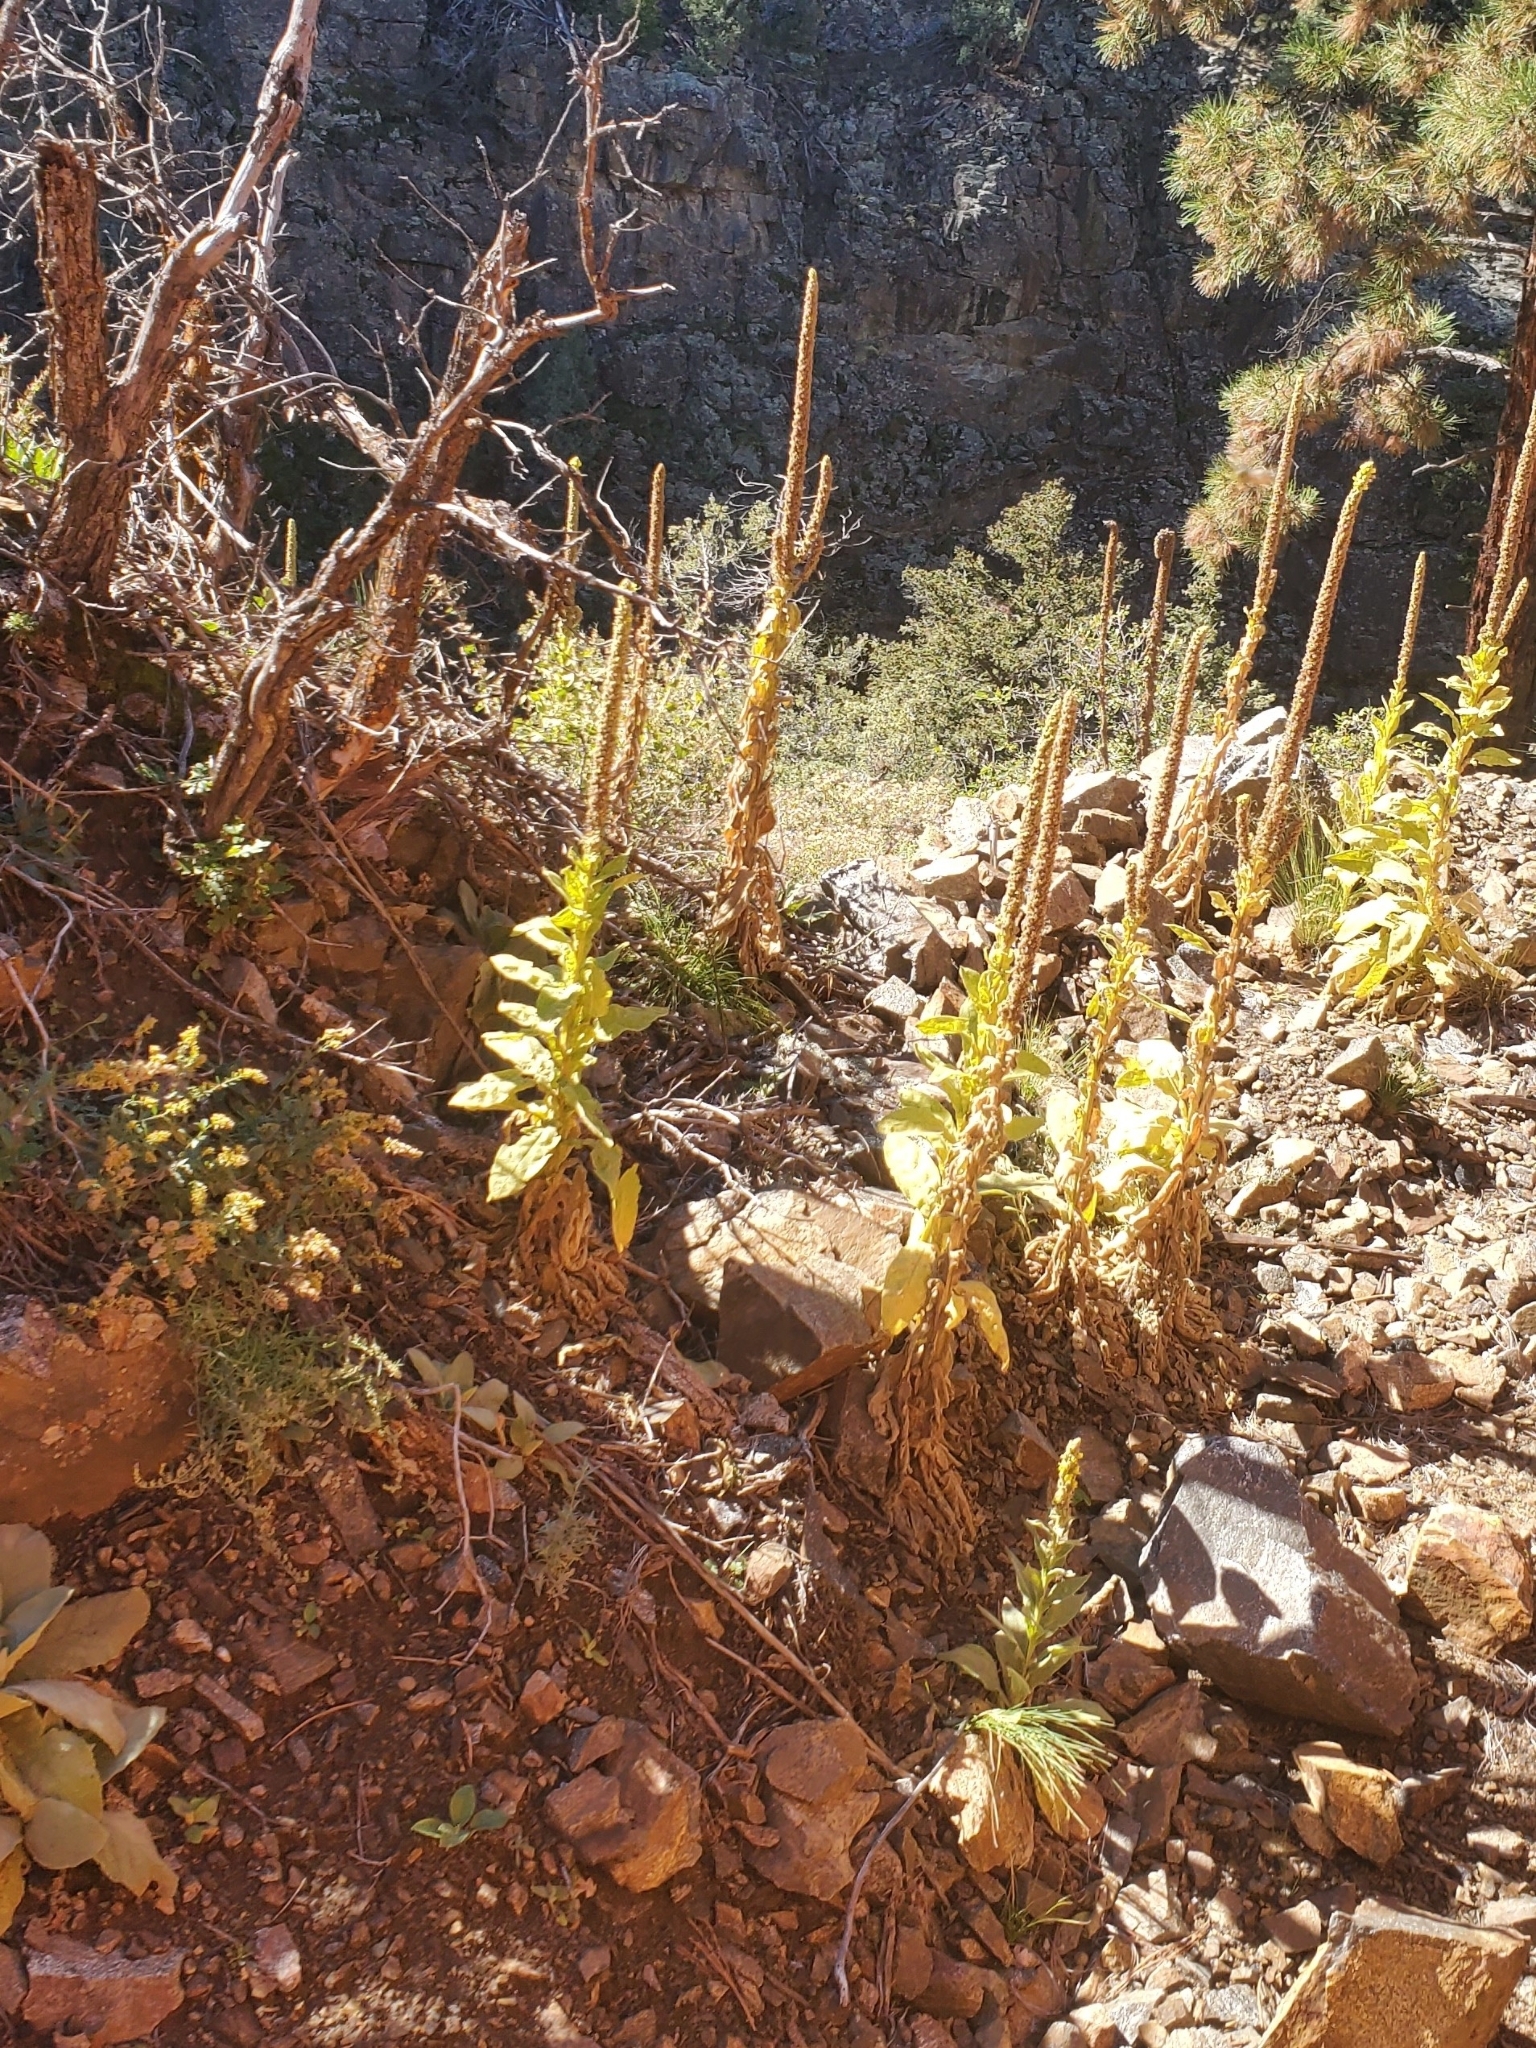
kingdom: Plantae
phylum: Tracheophyta
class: Magnoliopsida
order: Lamiales
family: Scrophulariaceae
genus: Verbascum
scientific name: Verbascum thapsus
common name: Common mullein
